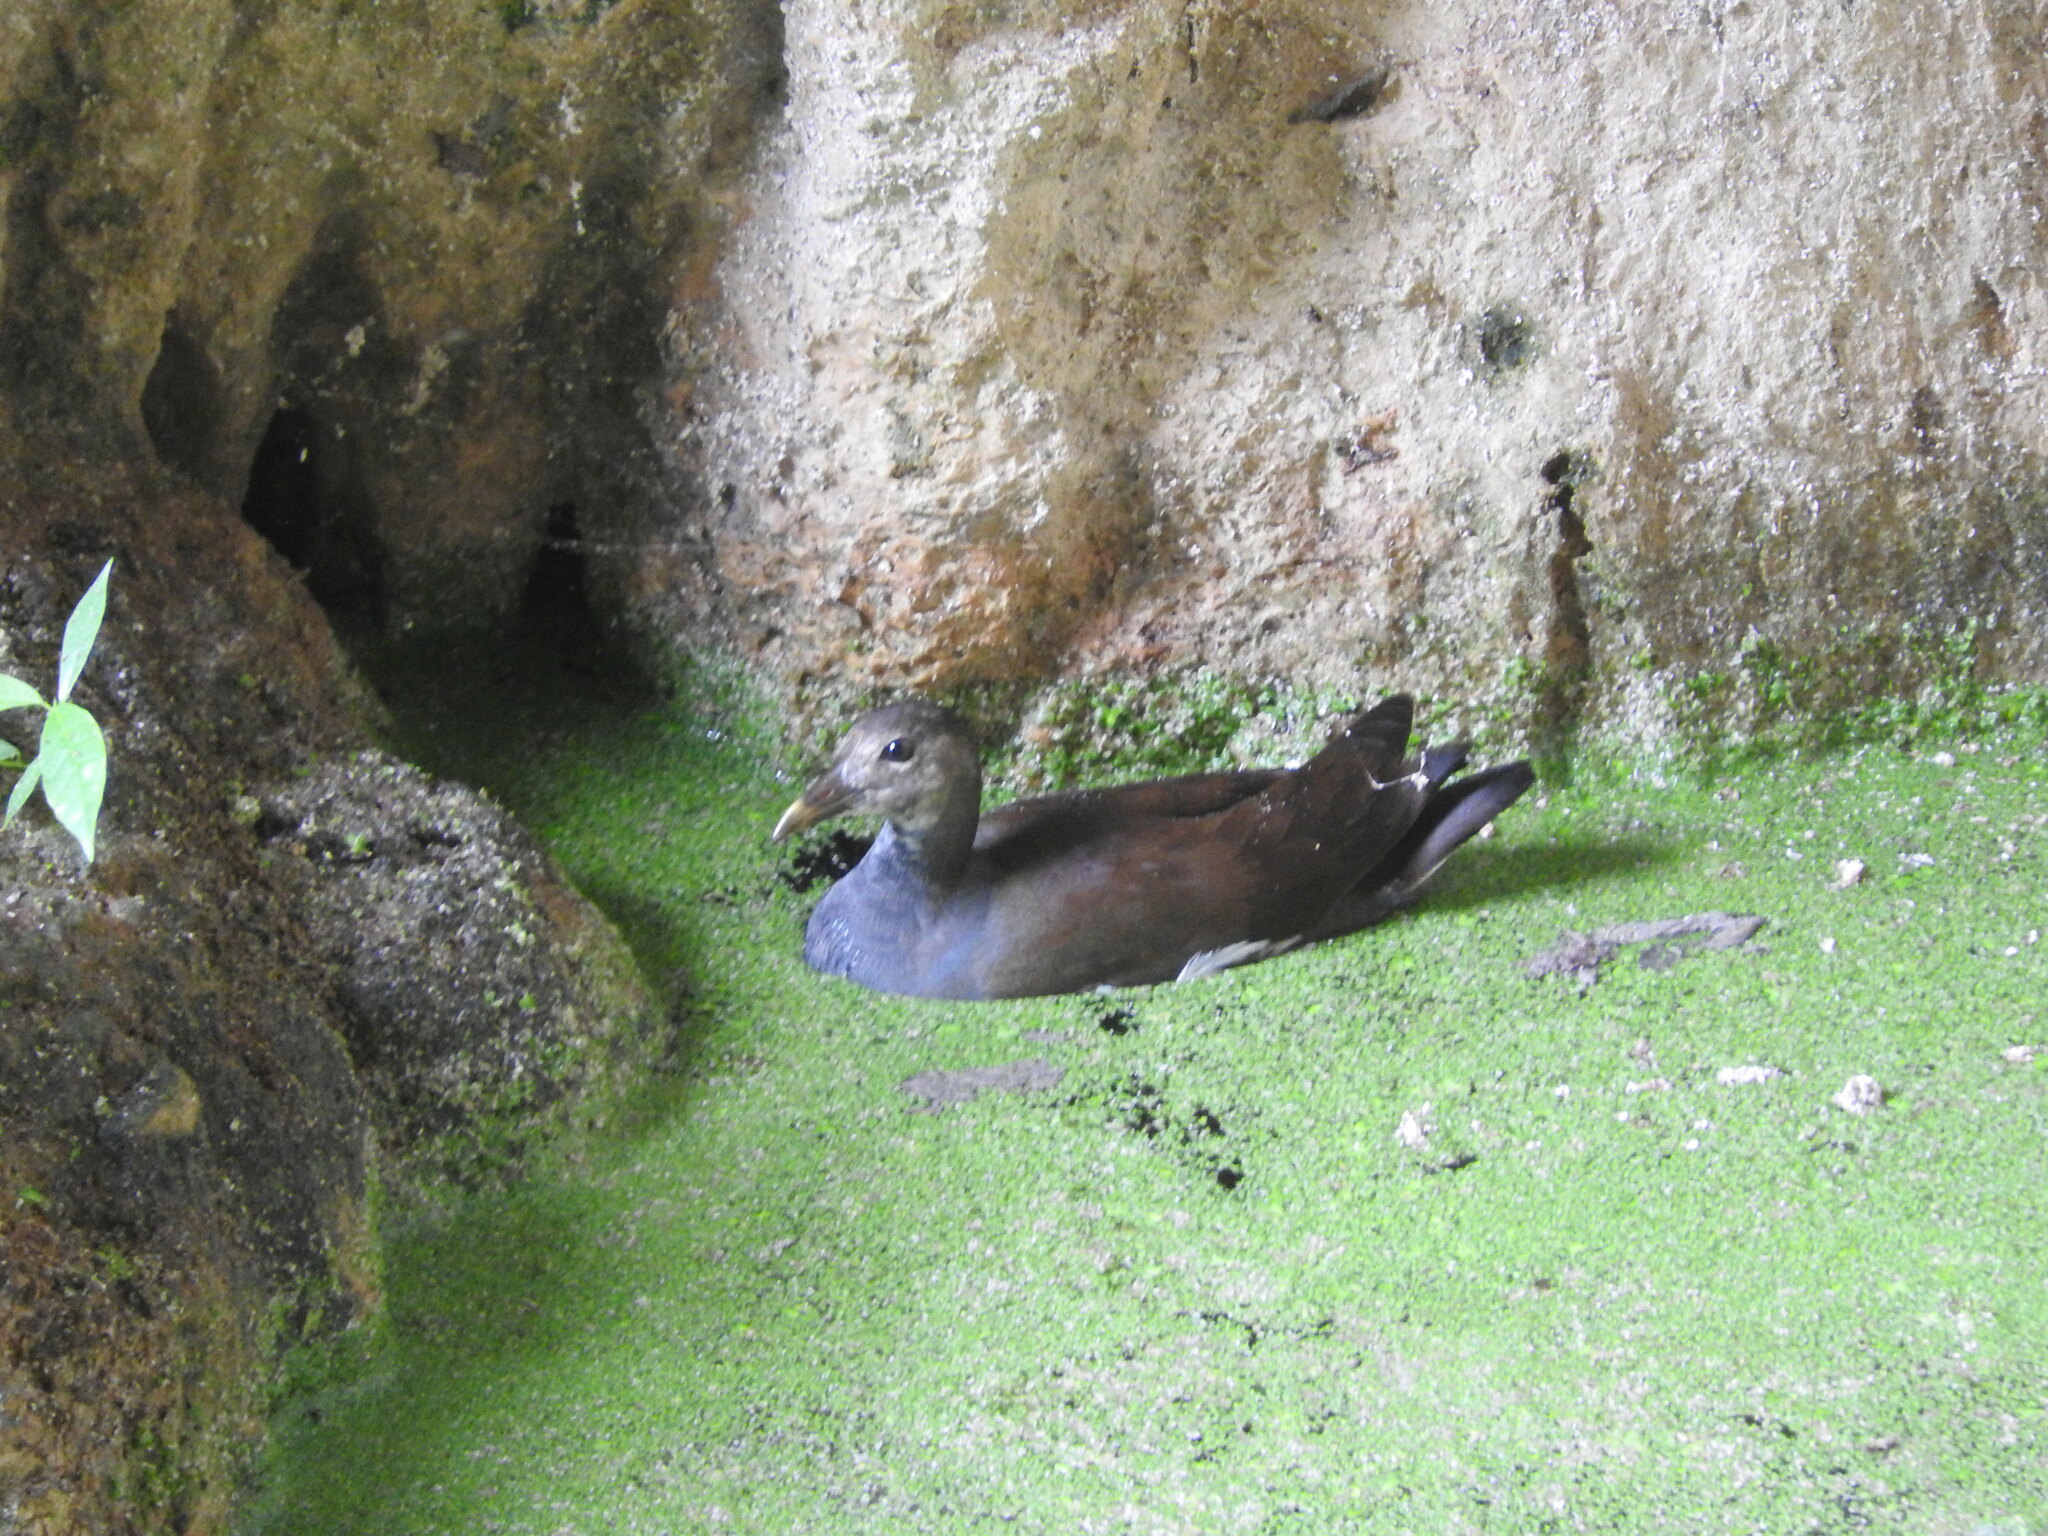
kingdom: Animalia
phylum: Chordata
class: Aves
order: Gruiformes
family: Rallidae
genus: Gallinula
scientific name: Gallinula chloropus
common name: Common moorhen
